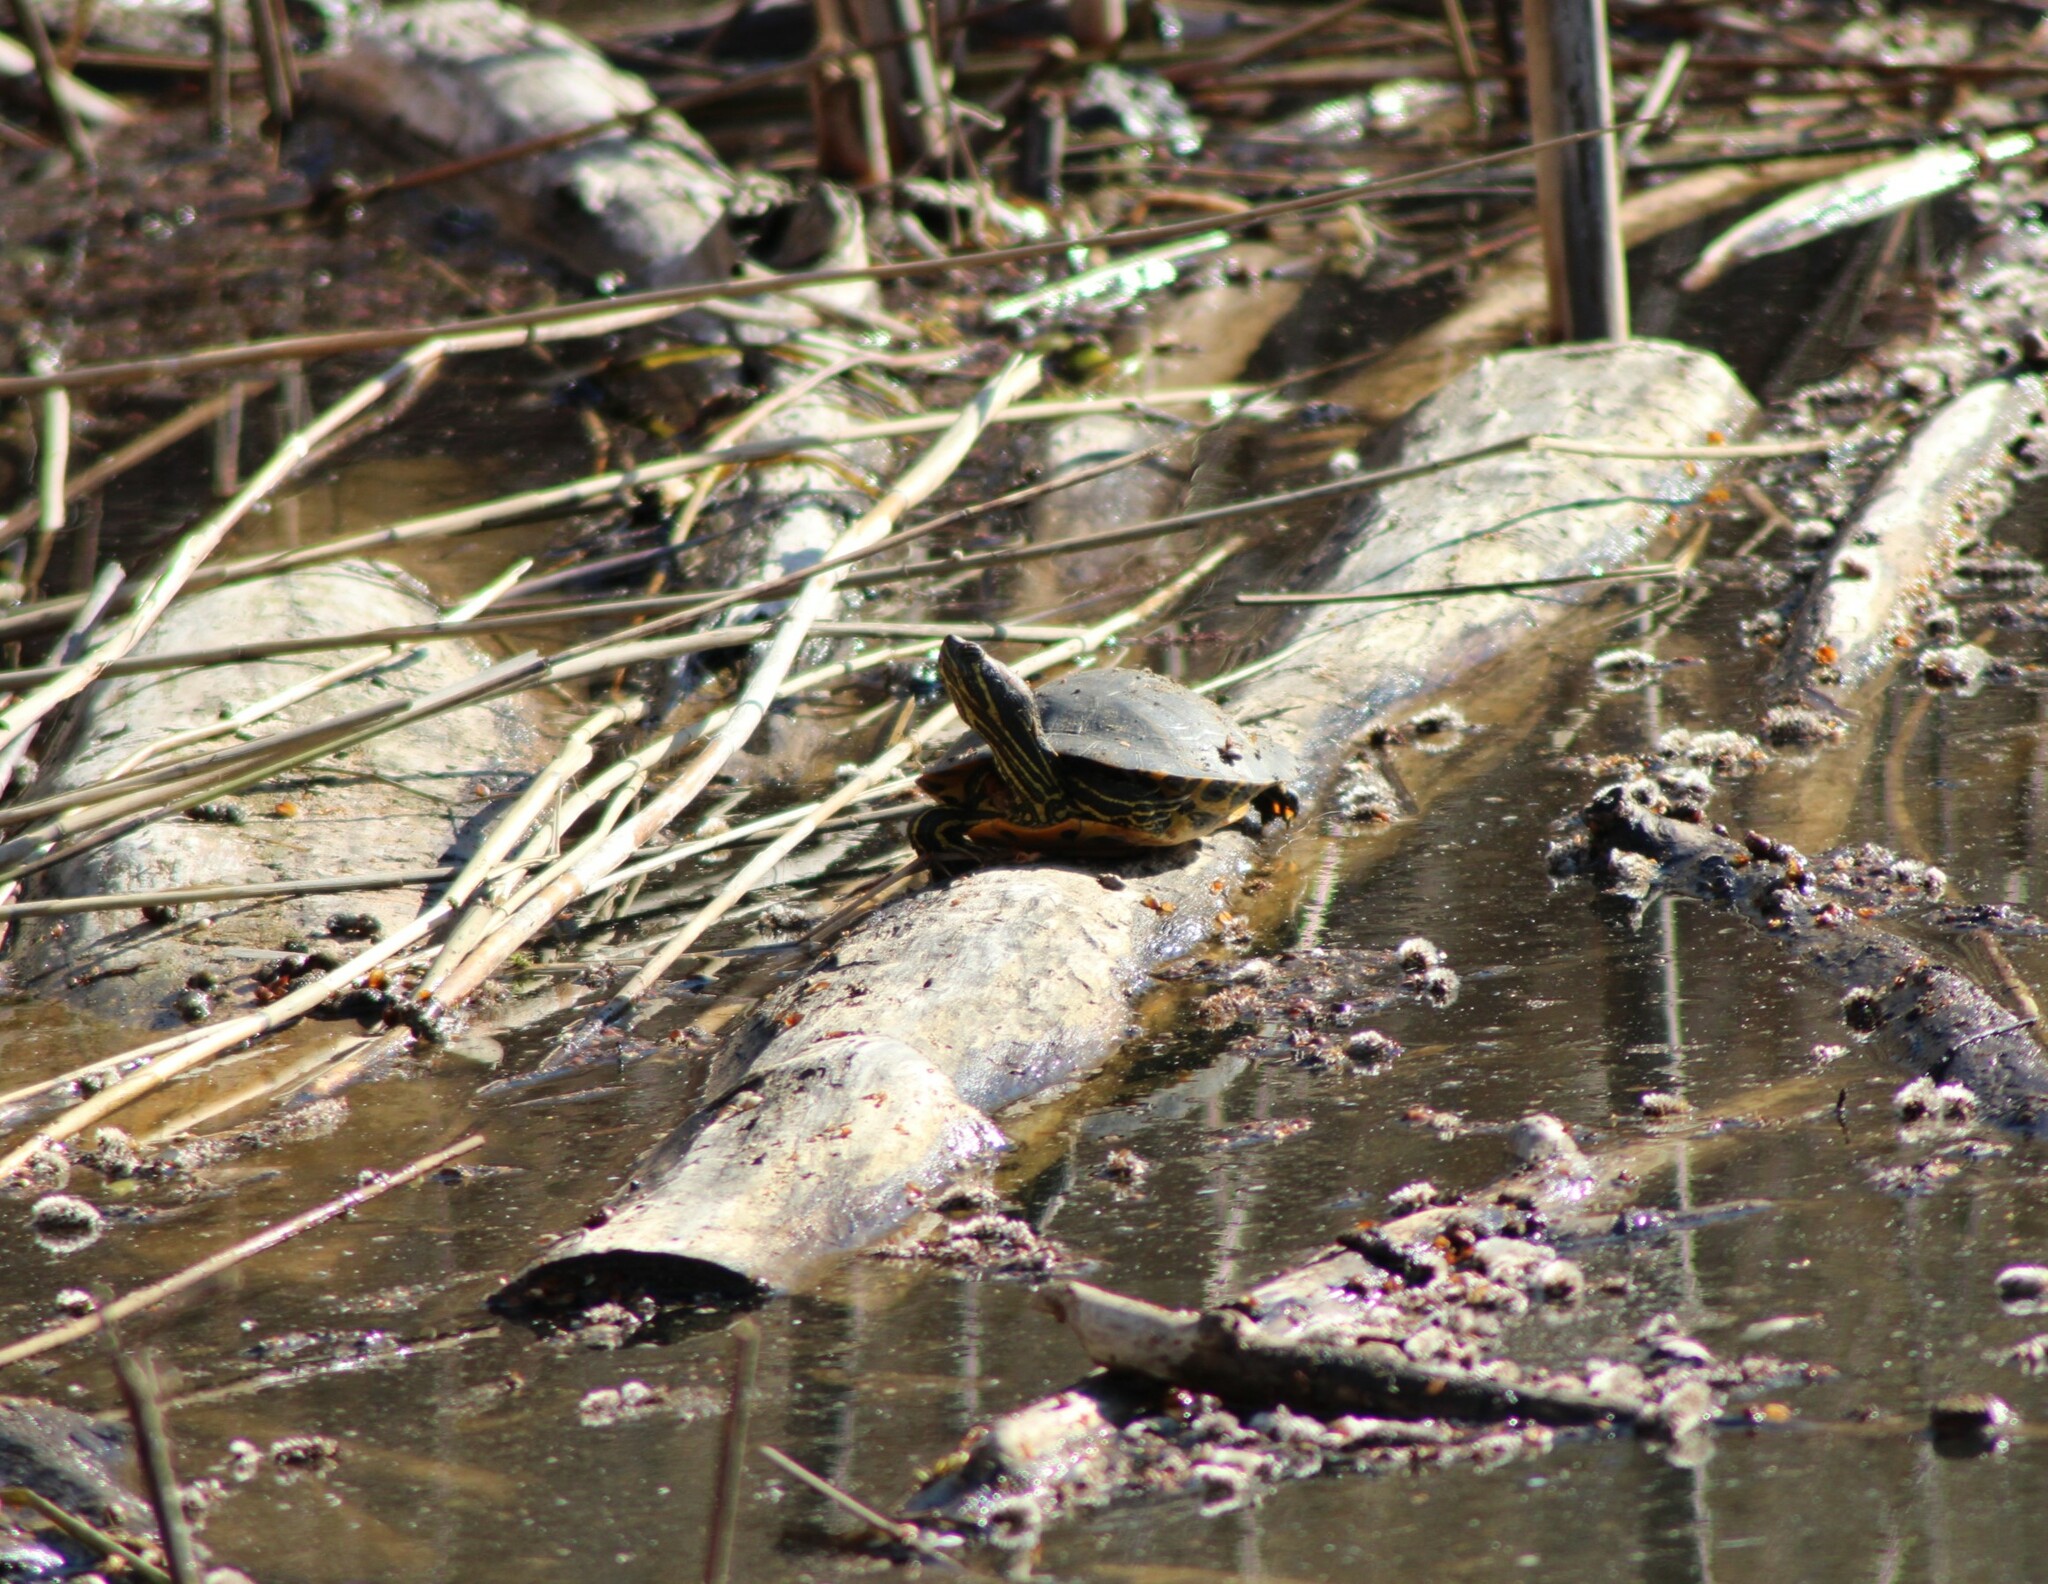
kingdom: Animalia
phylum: Chordata
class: Testudines
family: Emydidae
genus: Trachemys
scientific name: Trachemys scripta
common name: Slider
